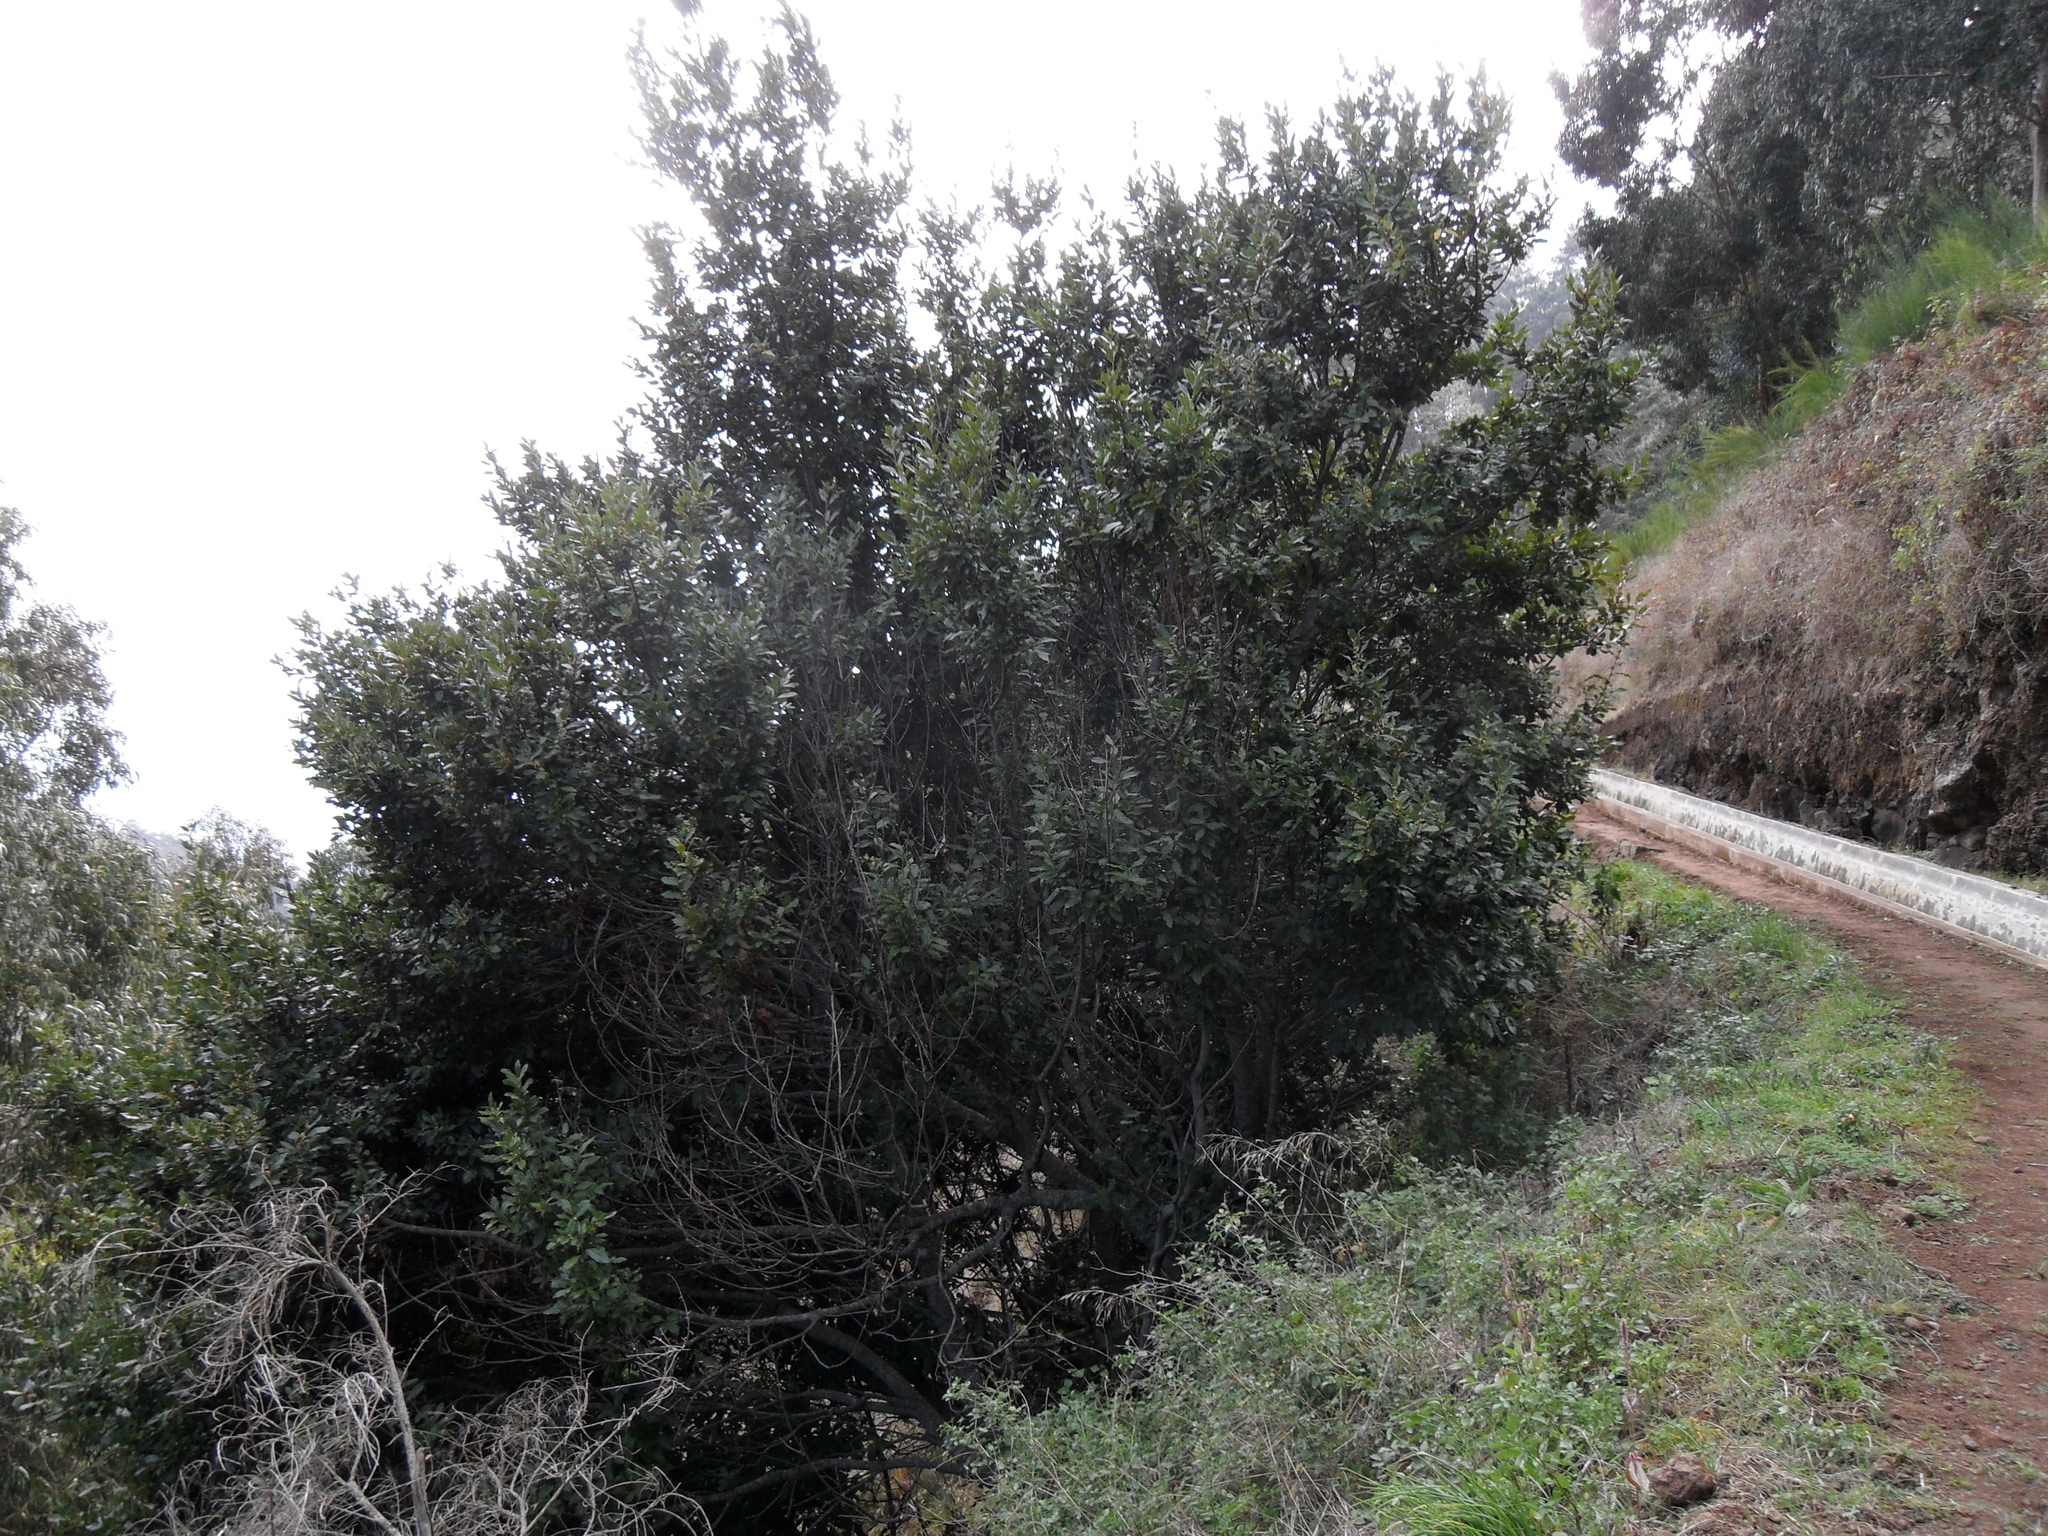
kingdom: Plantae
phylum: Tracheophyta
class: Magnoliopsida
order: Laurales
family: Lauraceae
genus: Laurus
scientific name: Laurus novocanariensis
